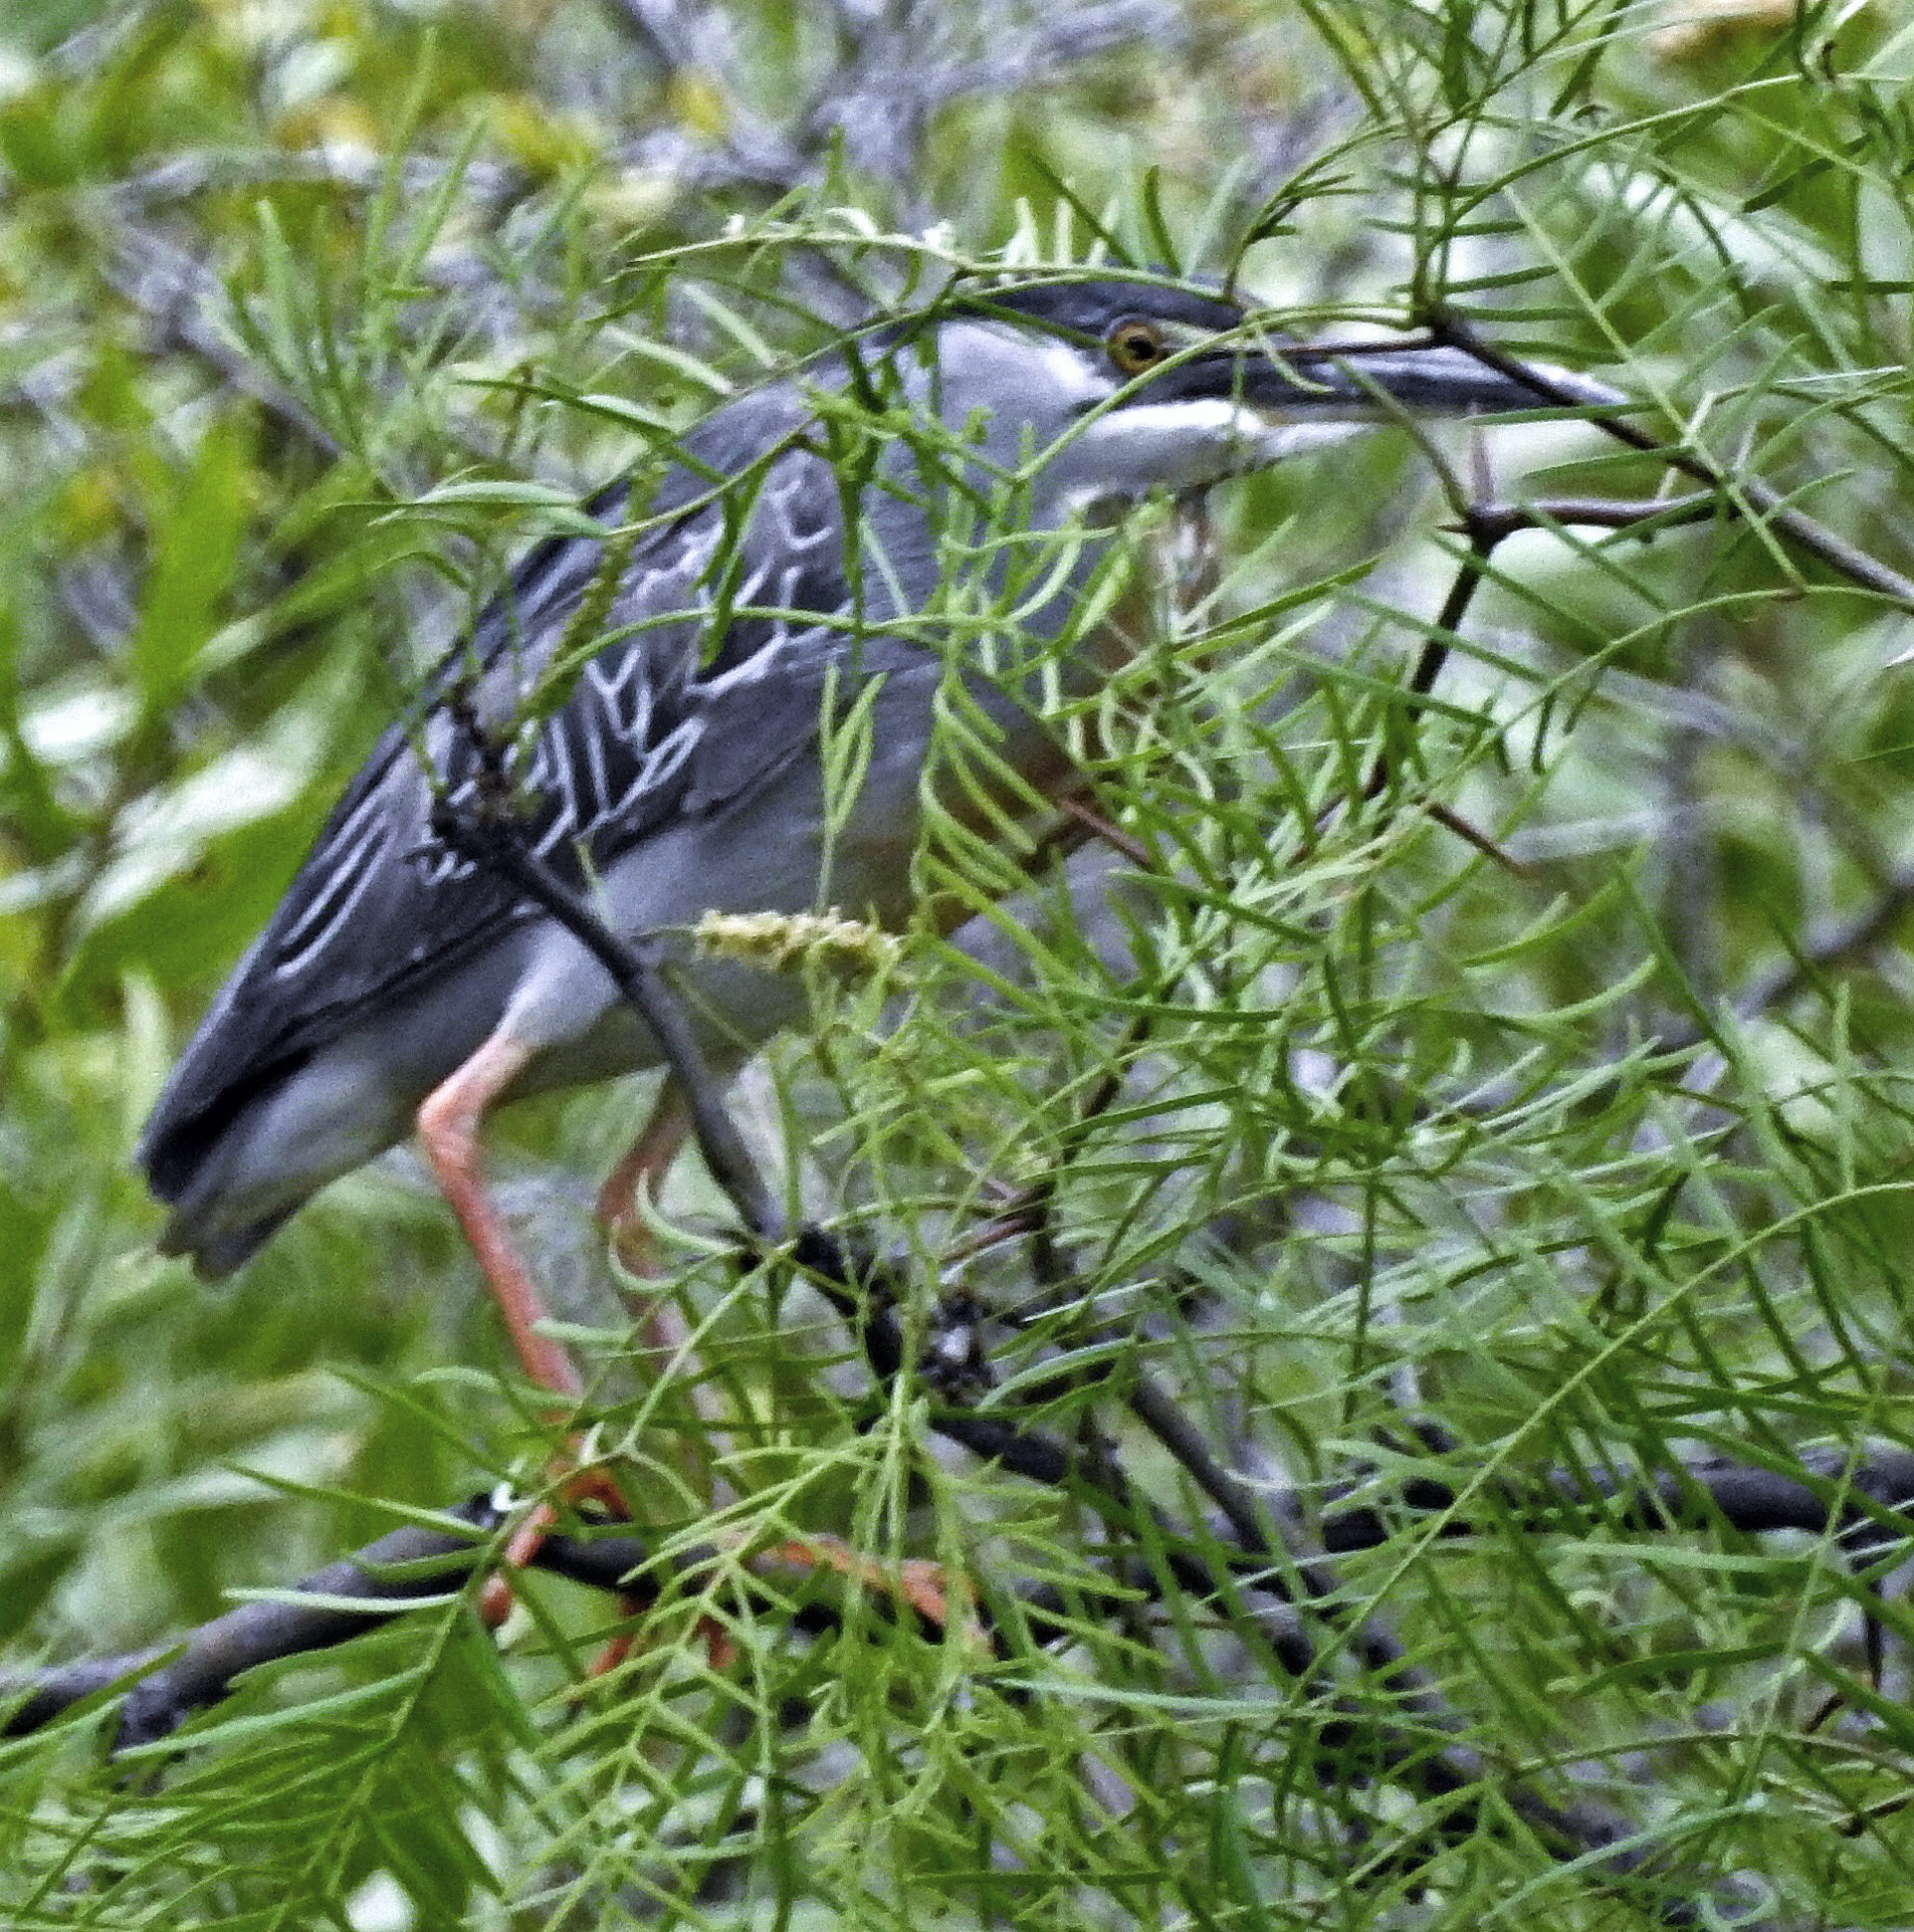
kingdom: Animalia
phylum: Chordata
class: Aves
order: Pelecaniformes
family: Ardeidae
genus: Butorides
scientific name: Butorides striata
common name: Striated heron
